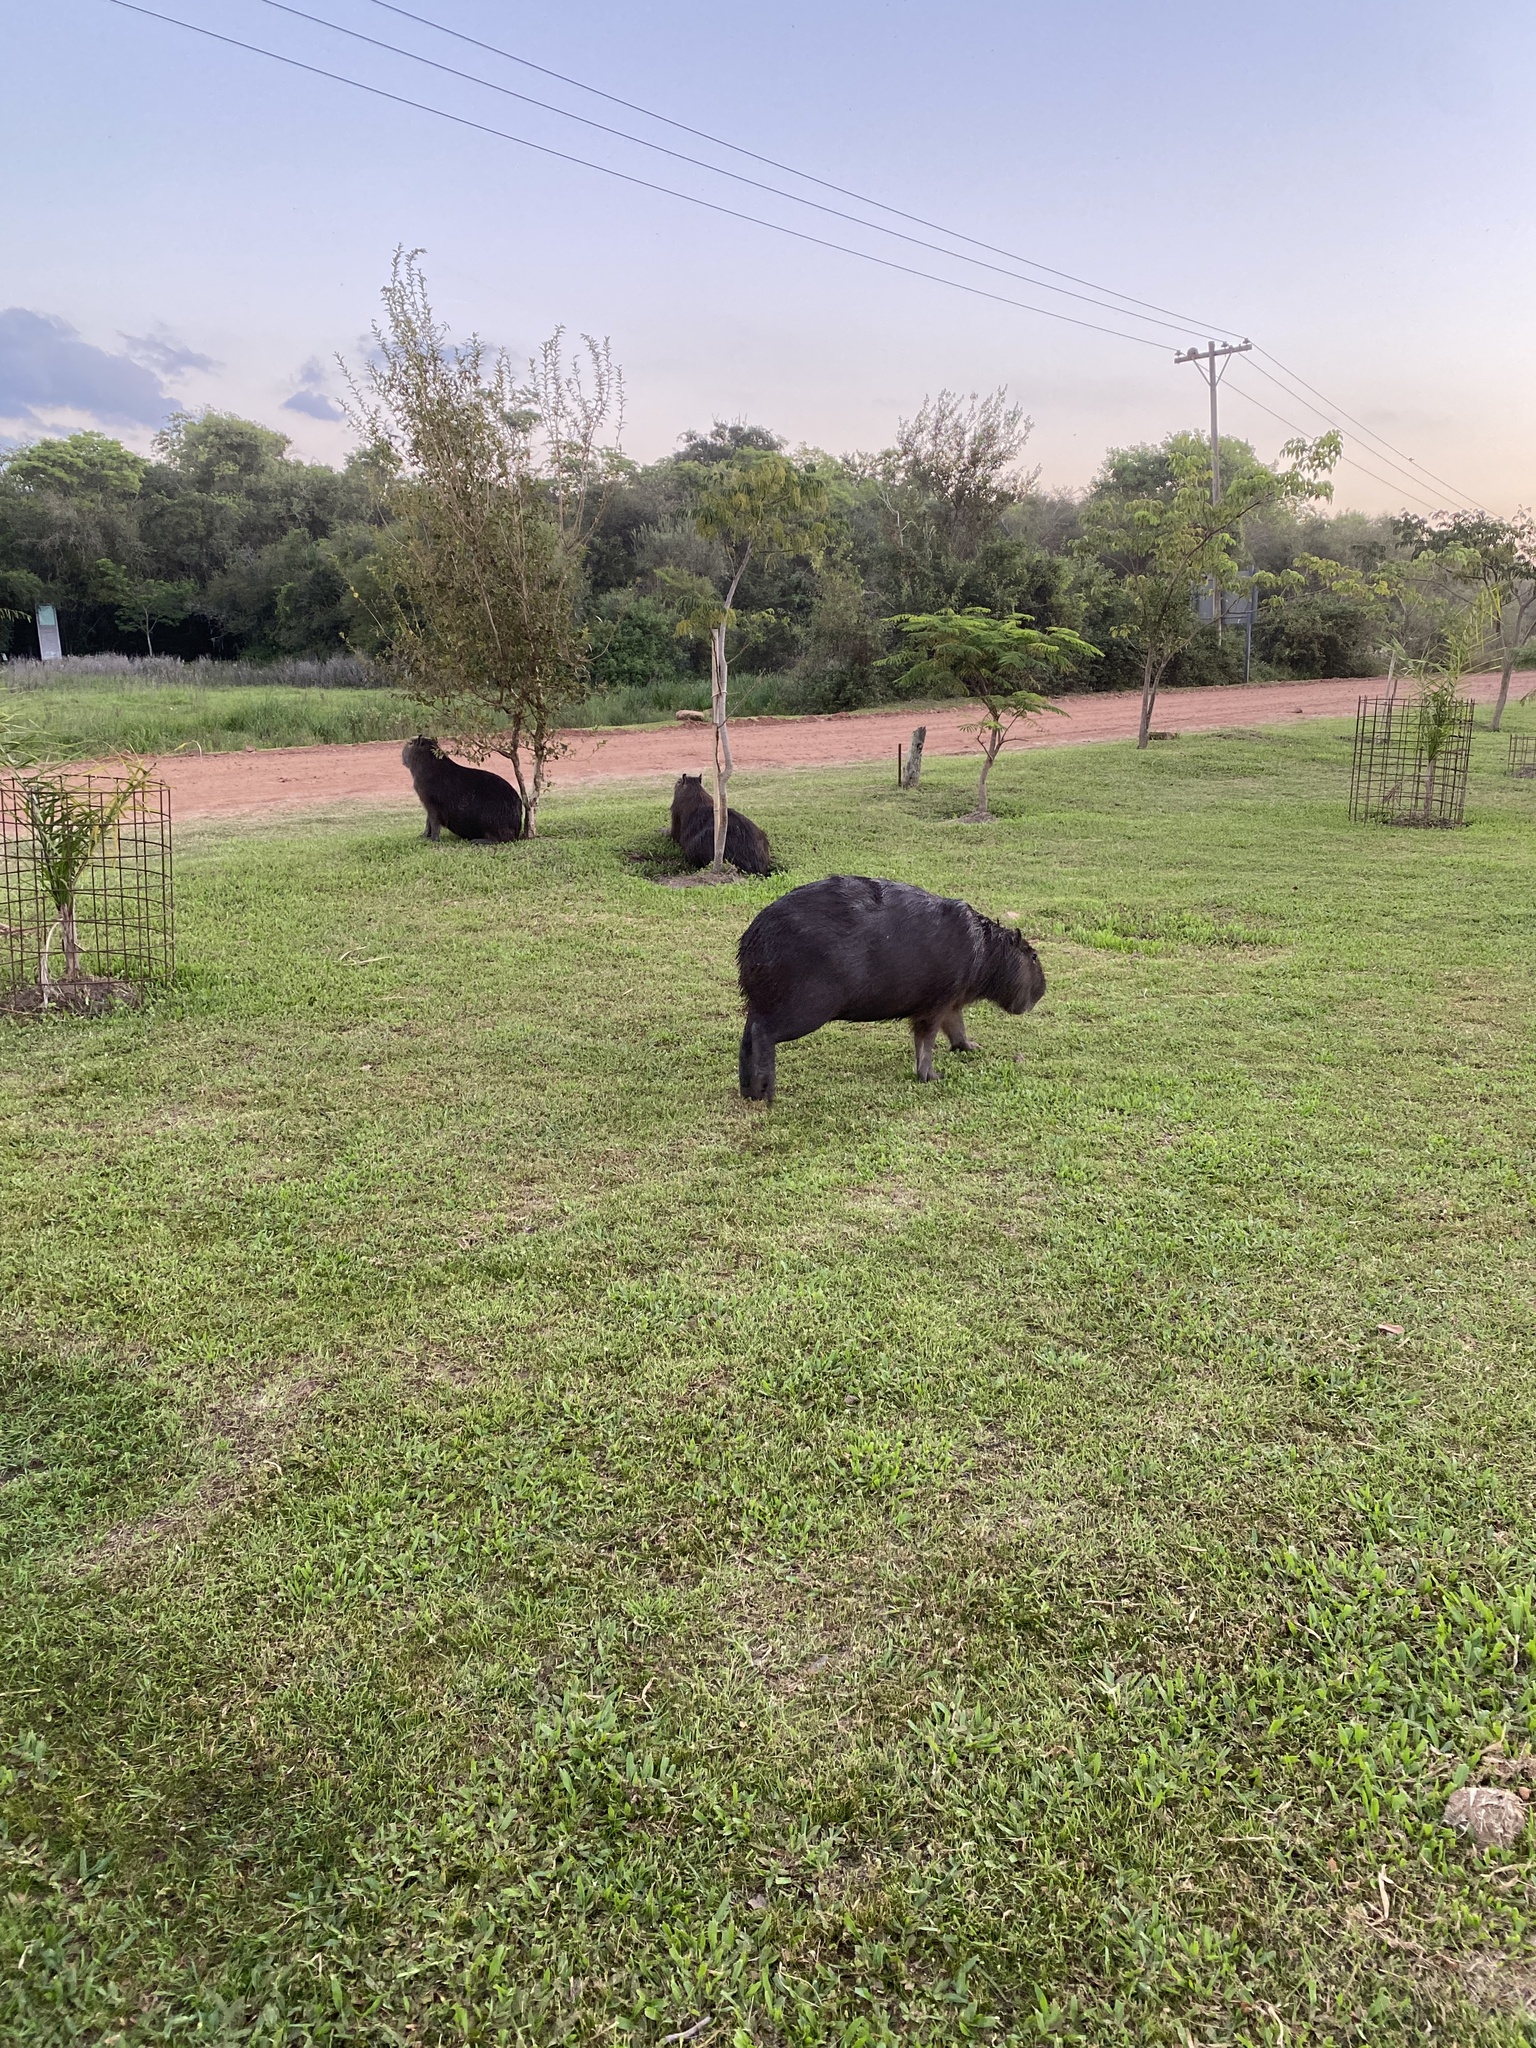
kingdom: Animalia
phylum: Chordata
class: Mammalia
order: Rodentia
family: Caviidae
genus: Hydrochoerus
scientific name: Hydrochoerus hydrochaeris
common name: Capybara
